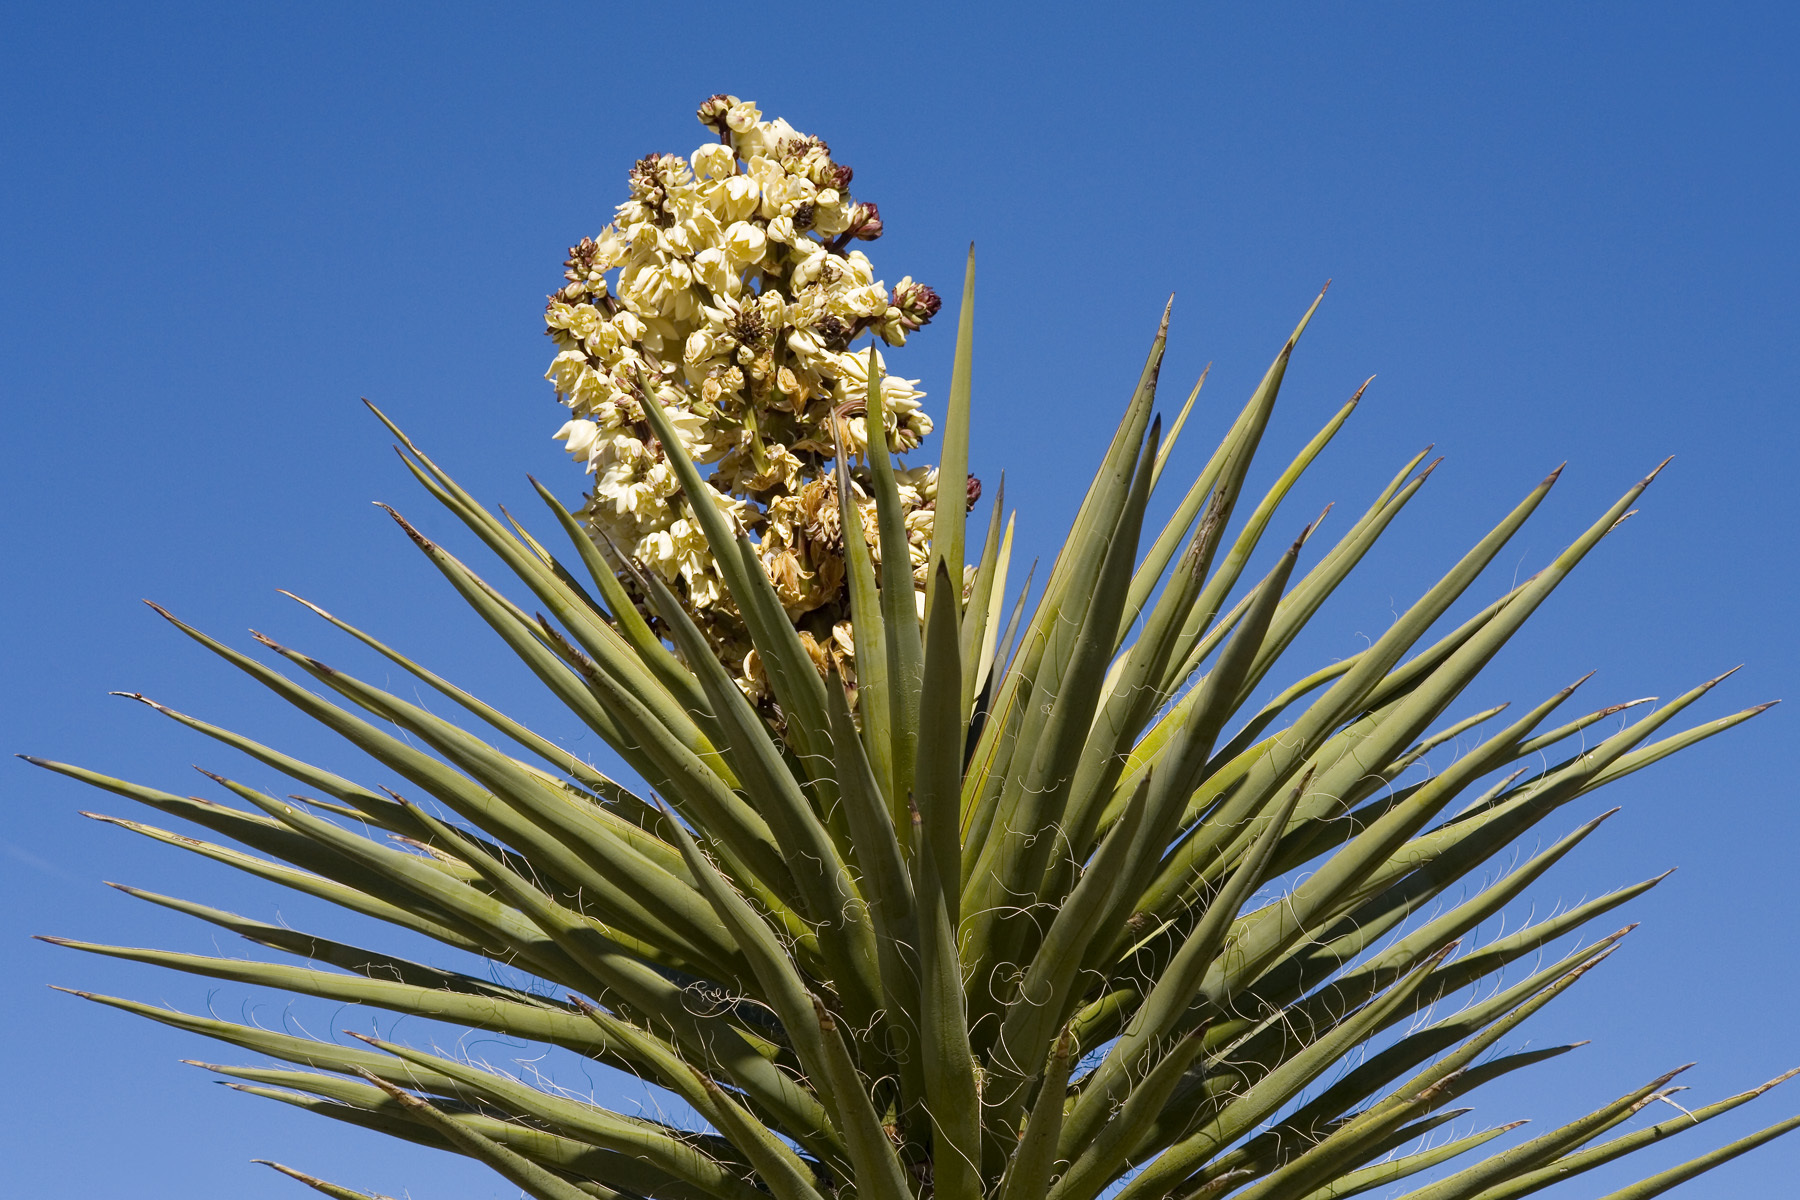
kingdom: Plantae
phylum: Tracheophyta
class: Liliopsida
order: Asparagales
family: Asparagaceae
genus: Yucca
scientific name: Yucca treculiana
